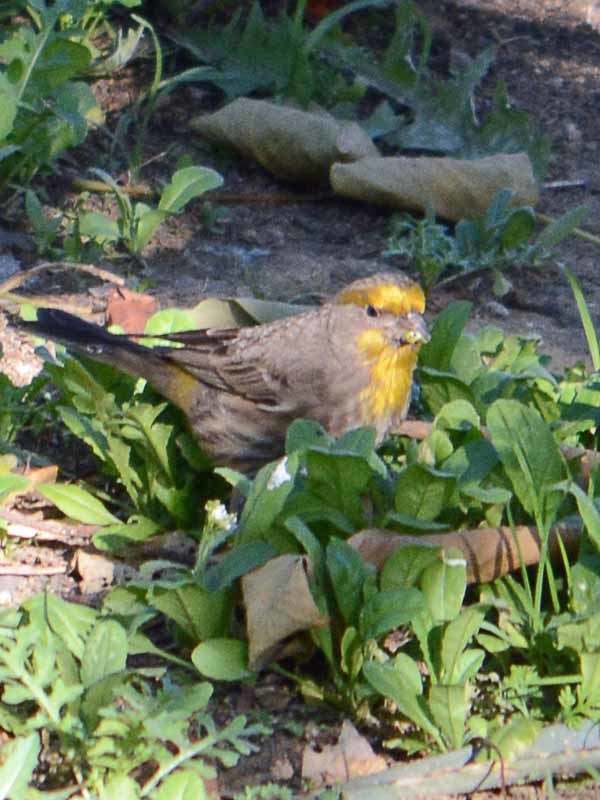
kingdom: Animalia
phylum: Chordata
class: Aves
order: Passeriformes
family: Fringillidae
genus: Haemorhous
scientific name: Haemorhous mexicanus
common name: House finch
